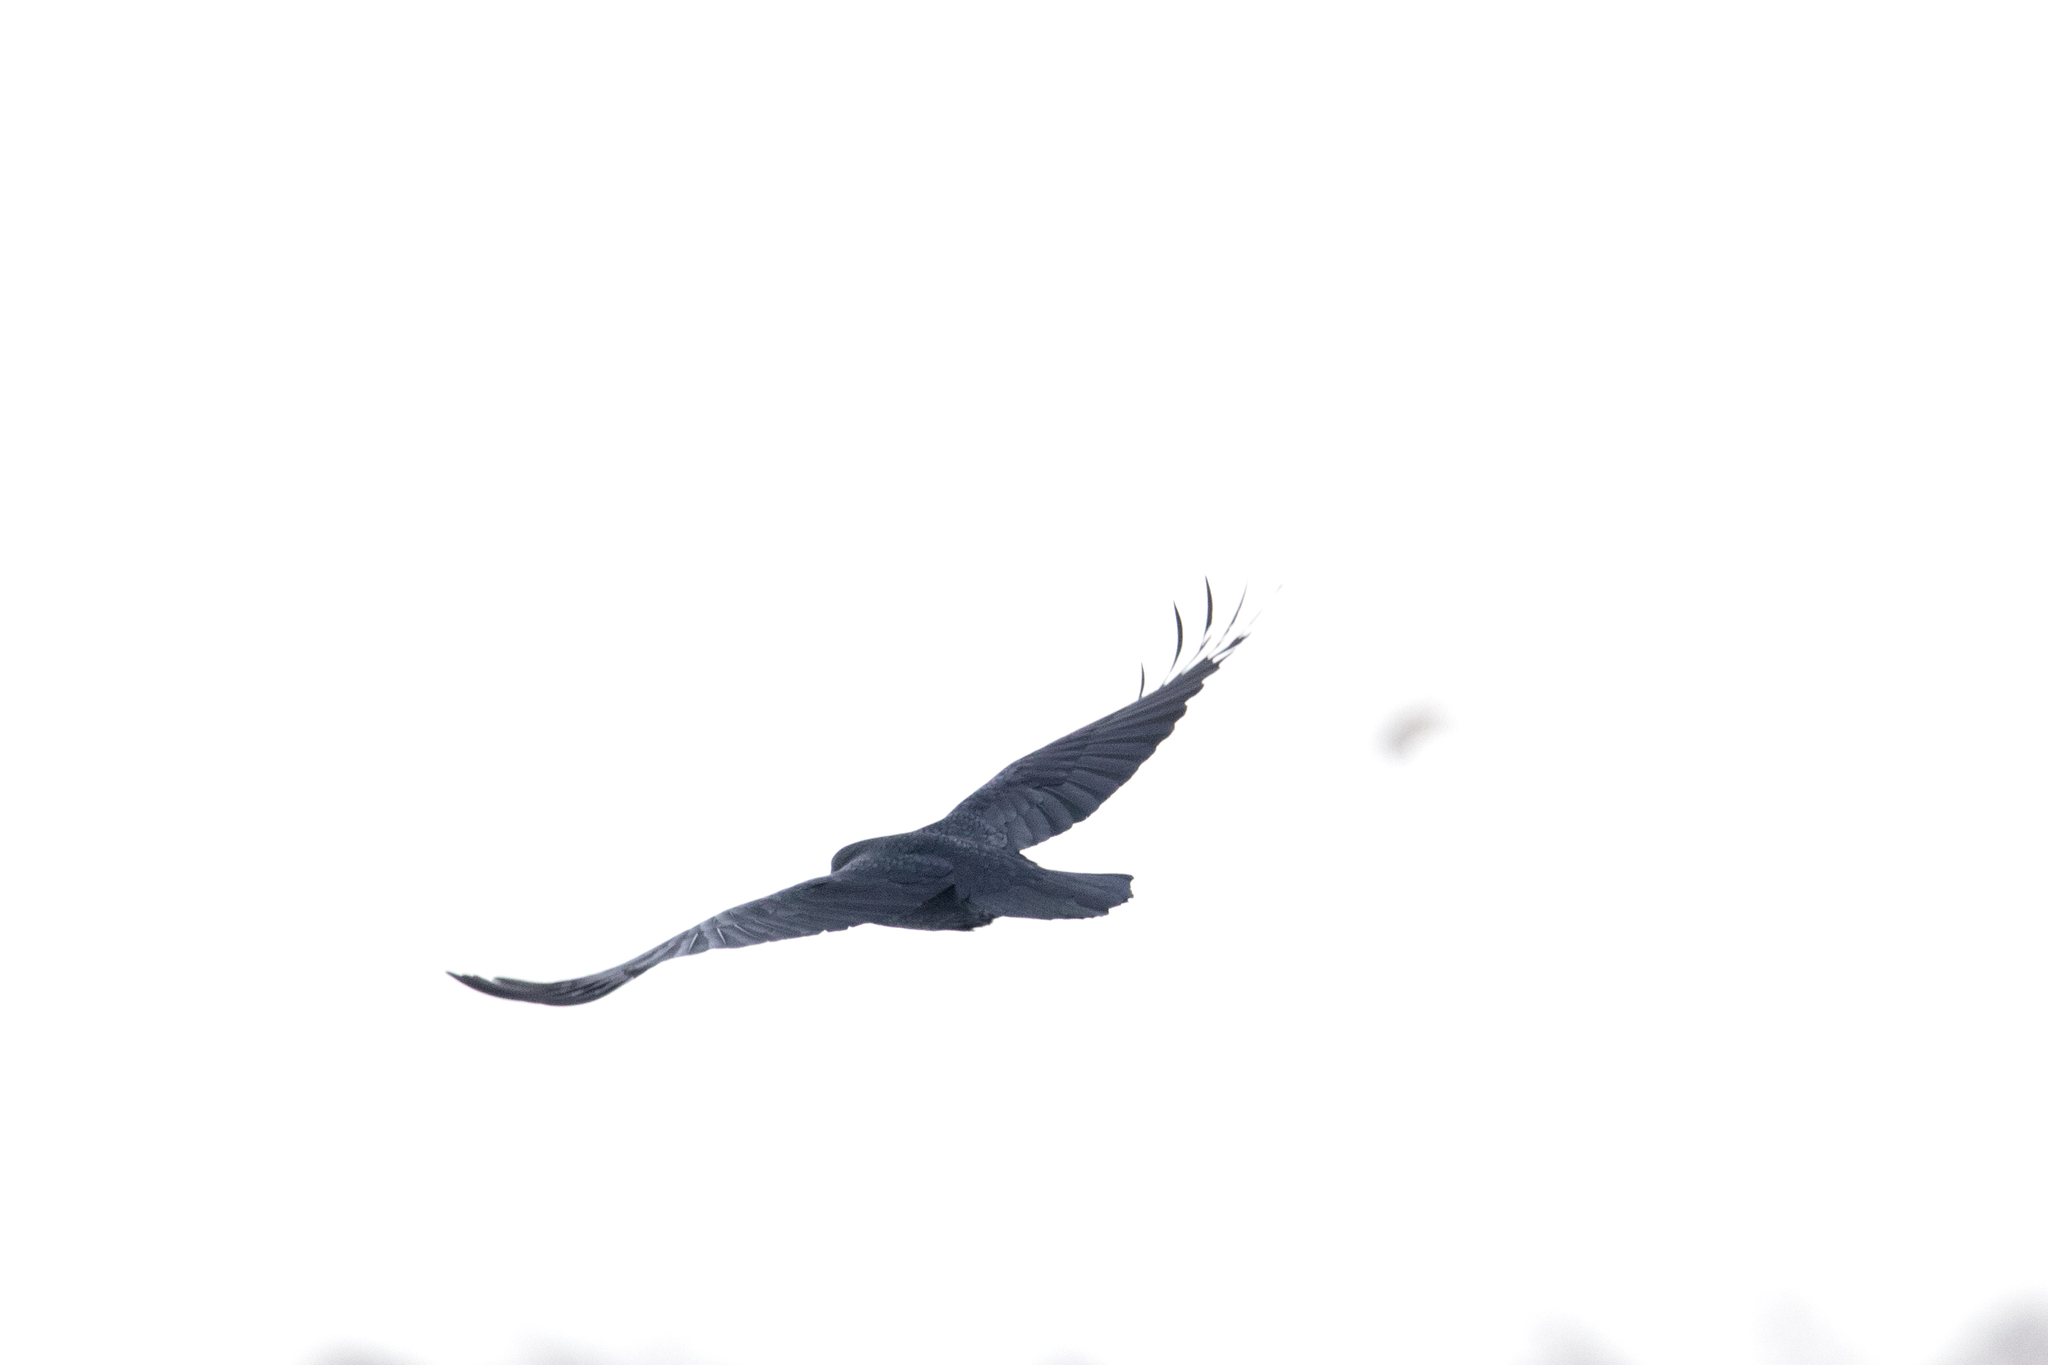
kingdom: Animalia
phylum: Chordata
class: Aves
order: Passeriformes
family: Corvidae
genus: Corvus
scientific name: Corvus corax
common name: Common raven
